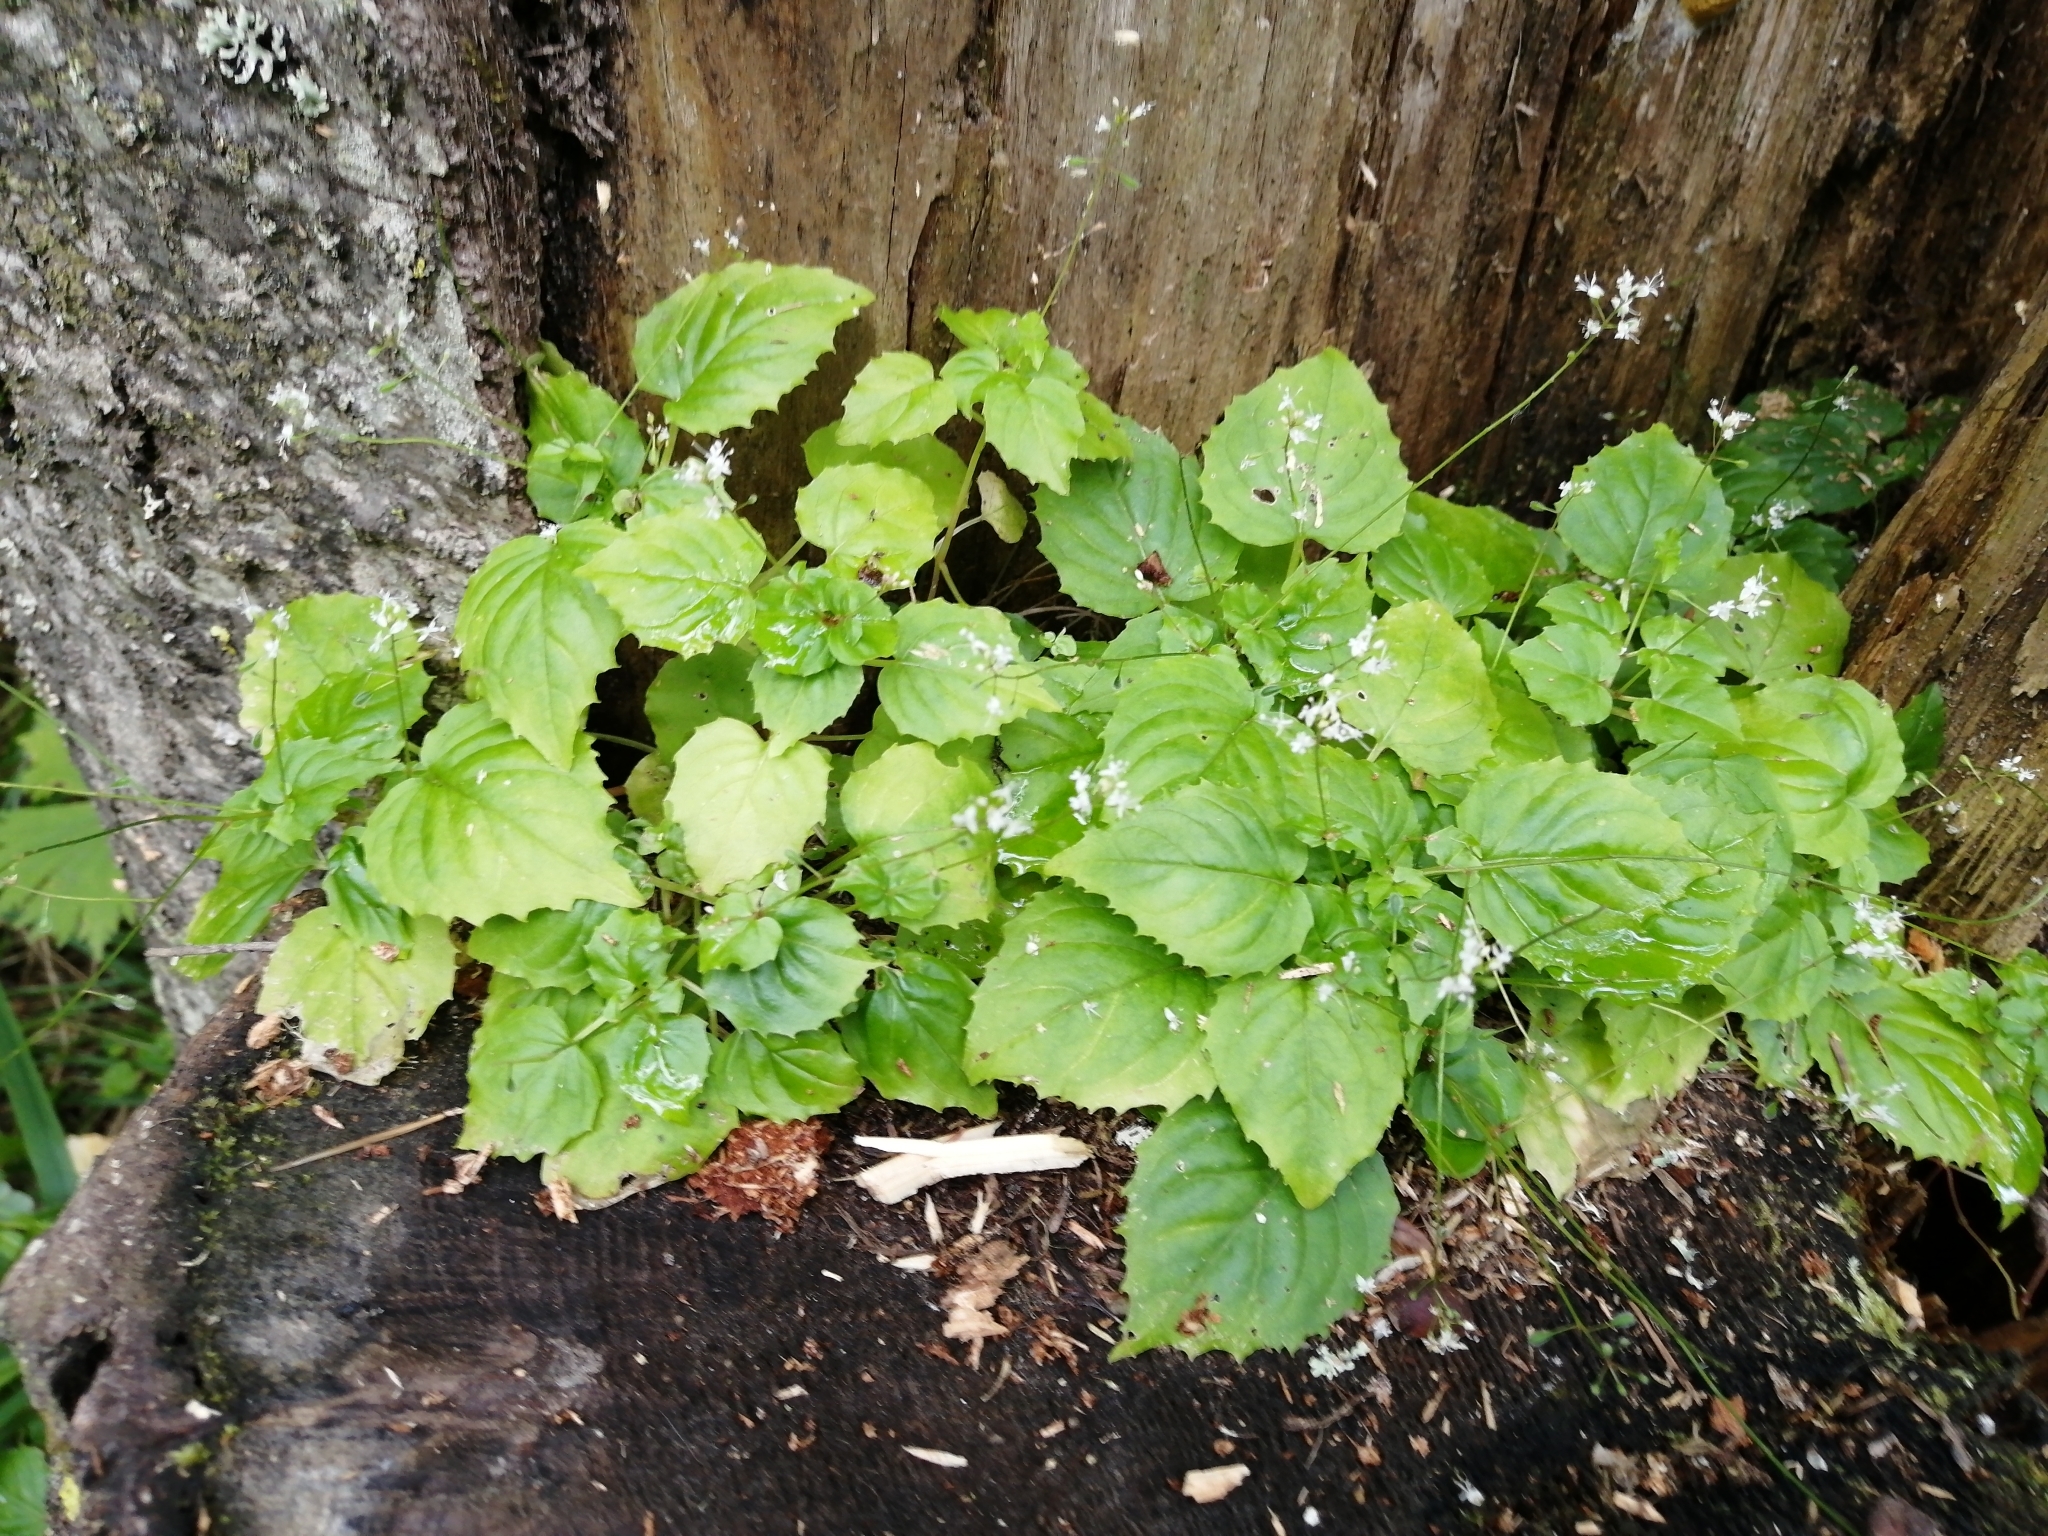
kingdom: Plantae
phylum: Tracheophyta
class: Magnoliopsida
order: Myrtales
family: Onagraceae
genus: Circaea
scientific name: Circaea alpina
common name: Alpine enchanter's-nightshade
